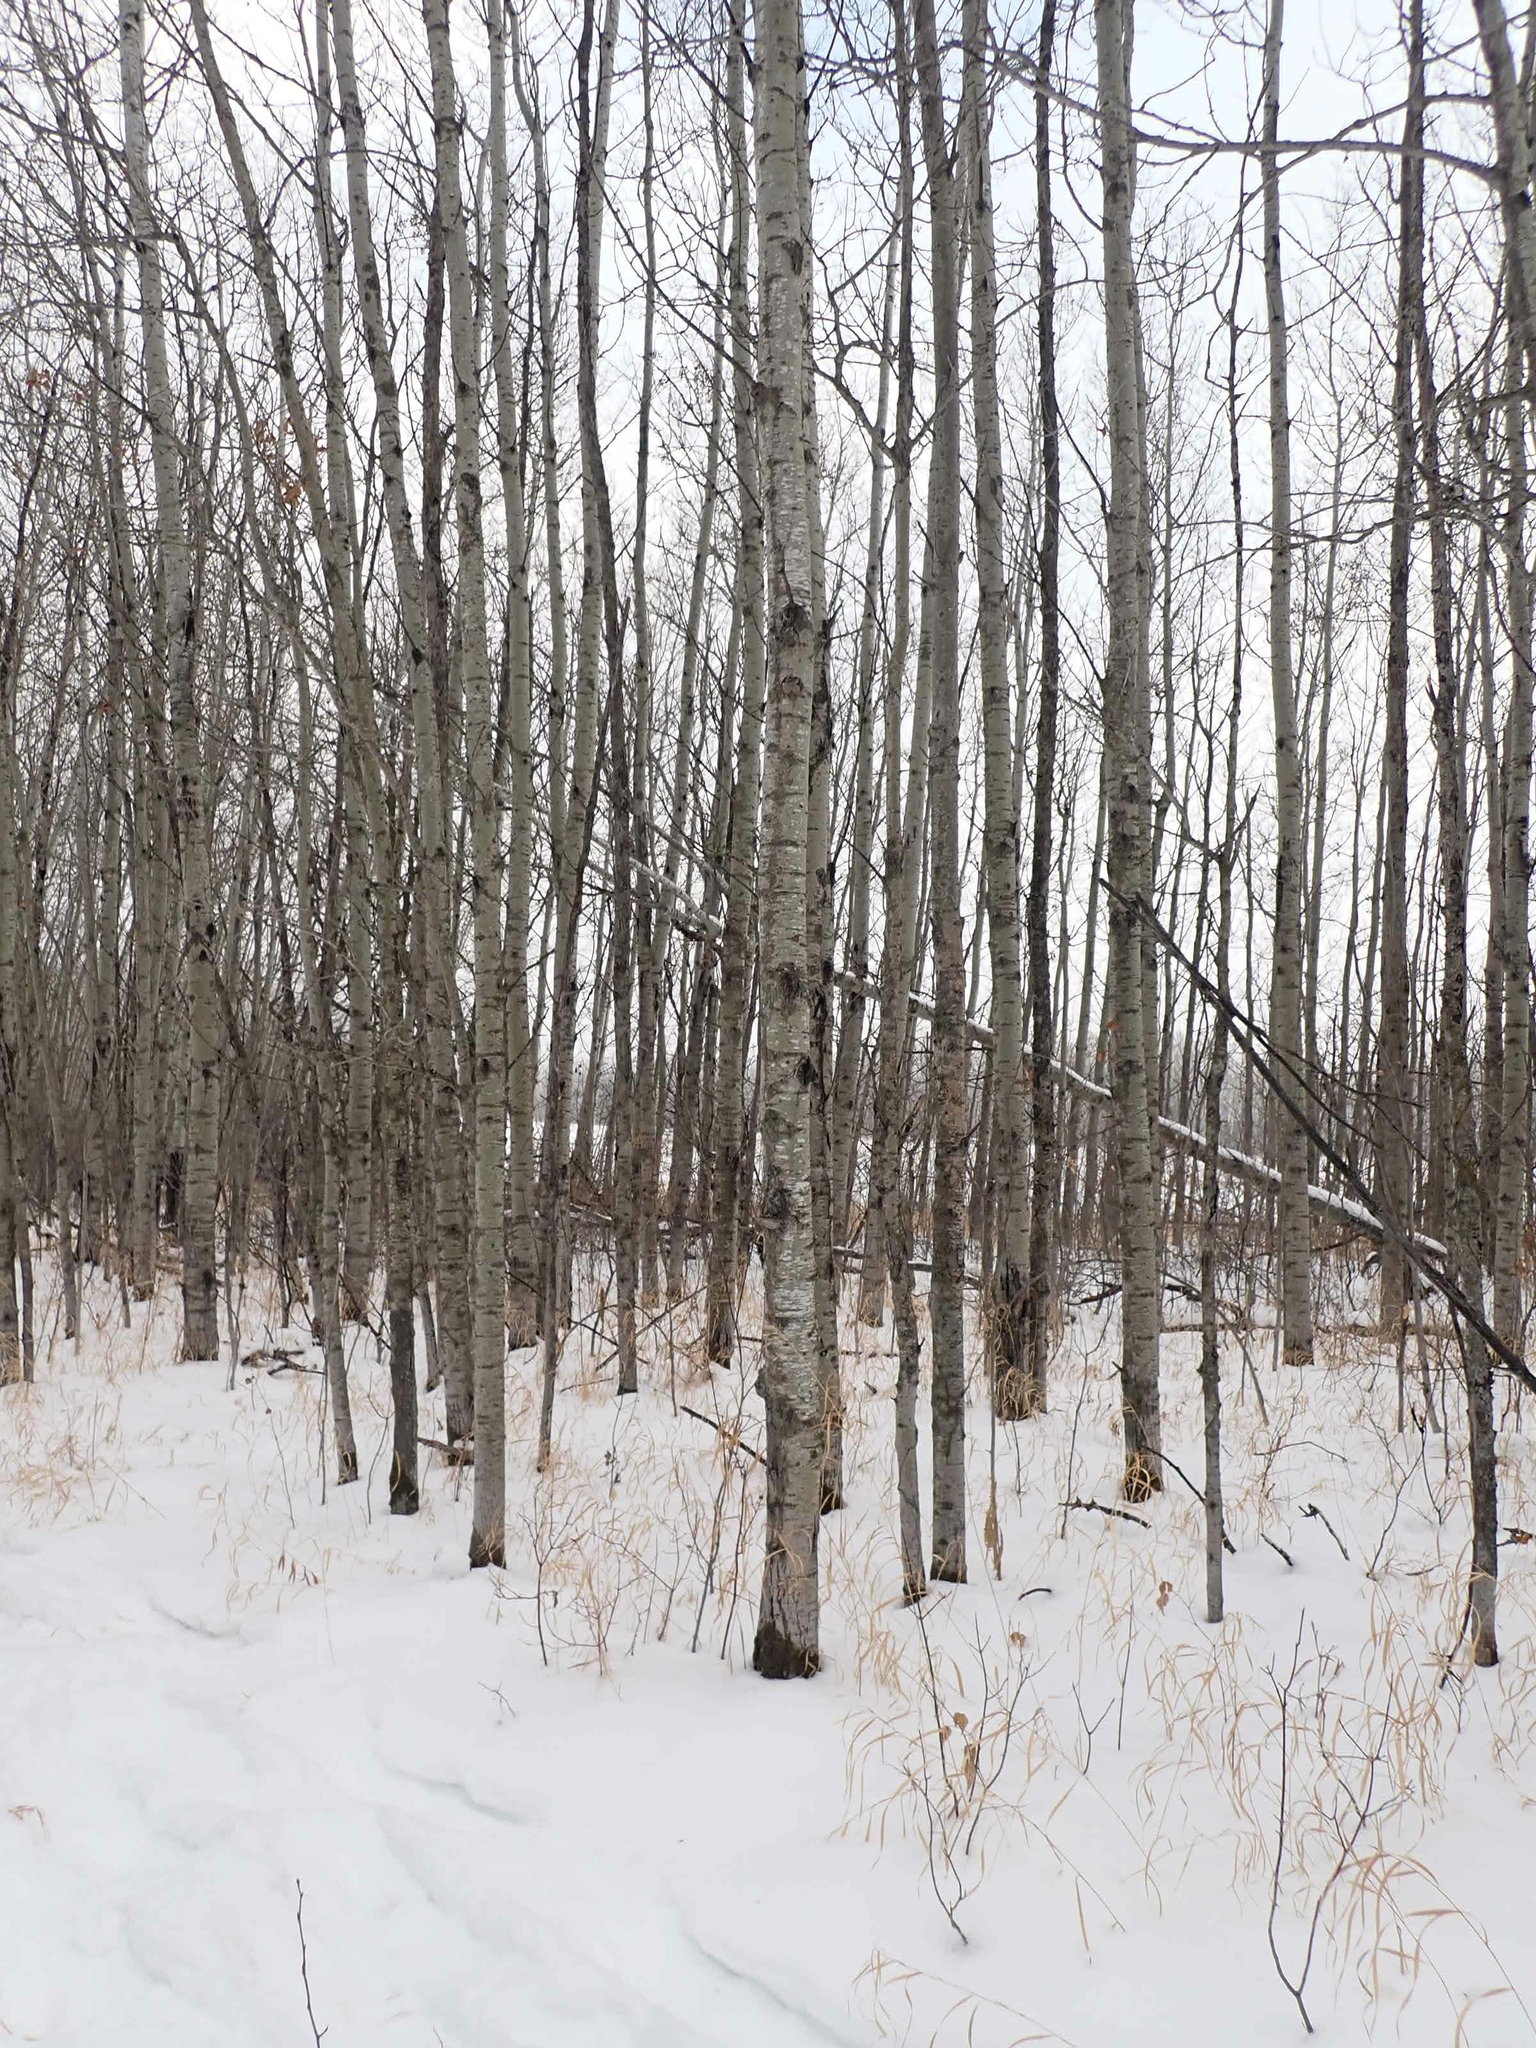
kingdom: Plantae
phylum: Tracheophyta
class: Magnoliopsida
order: Malpighiales
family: Salicaceae
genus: Populus
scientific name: Populus tremuloides
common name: Quaking aspen
